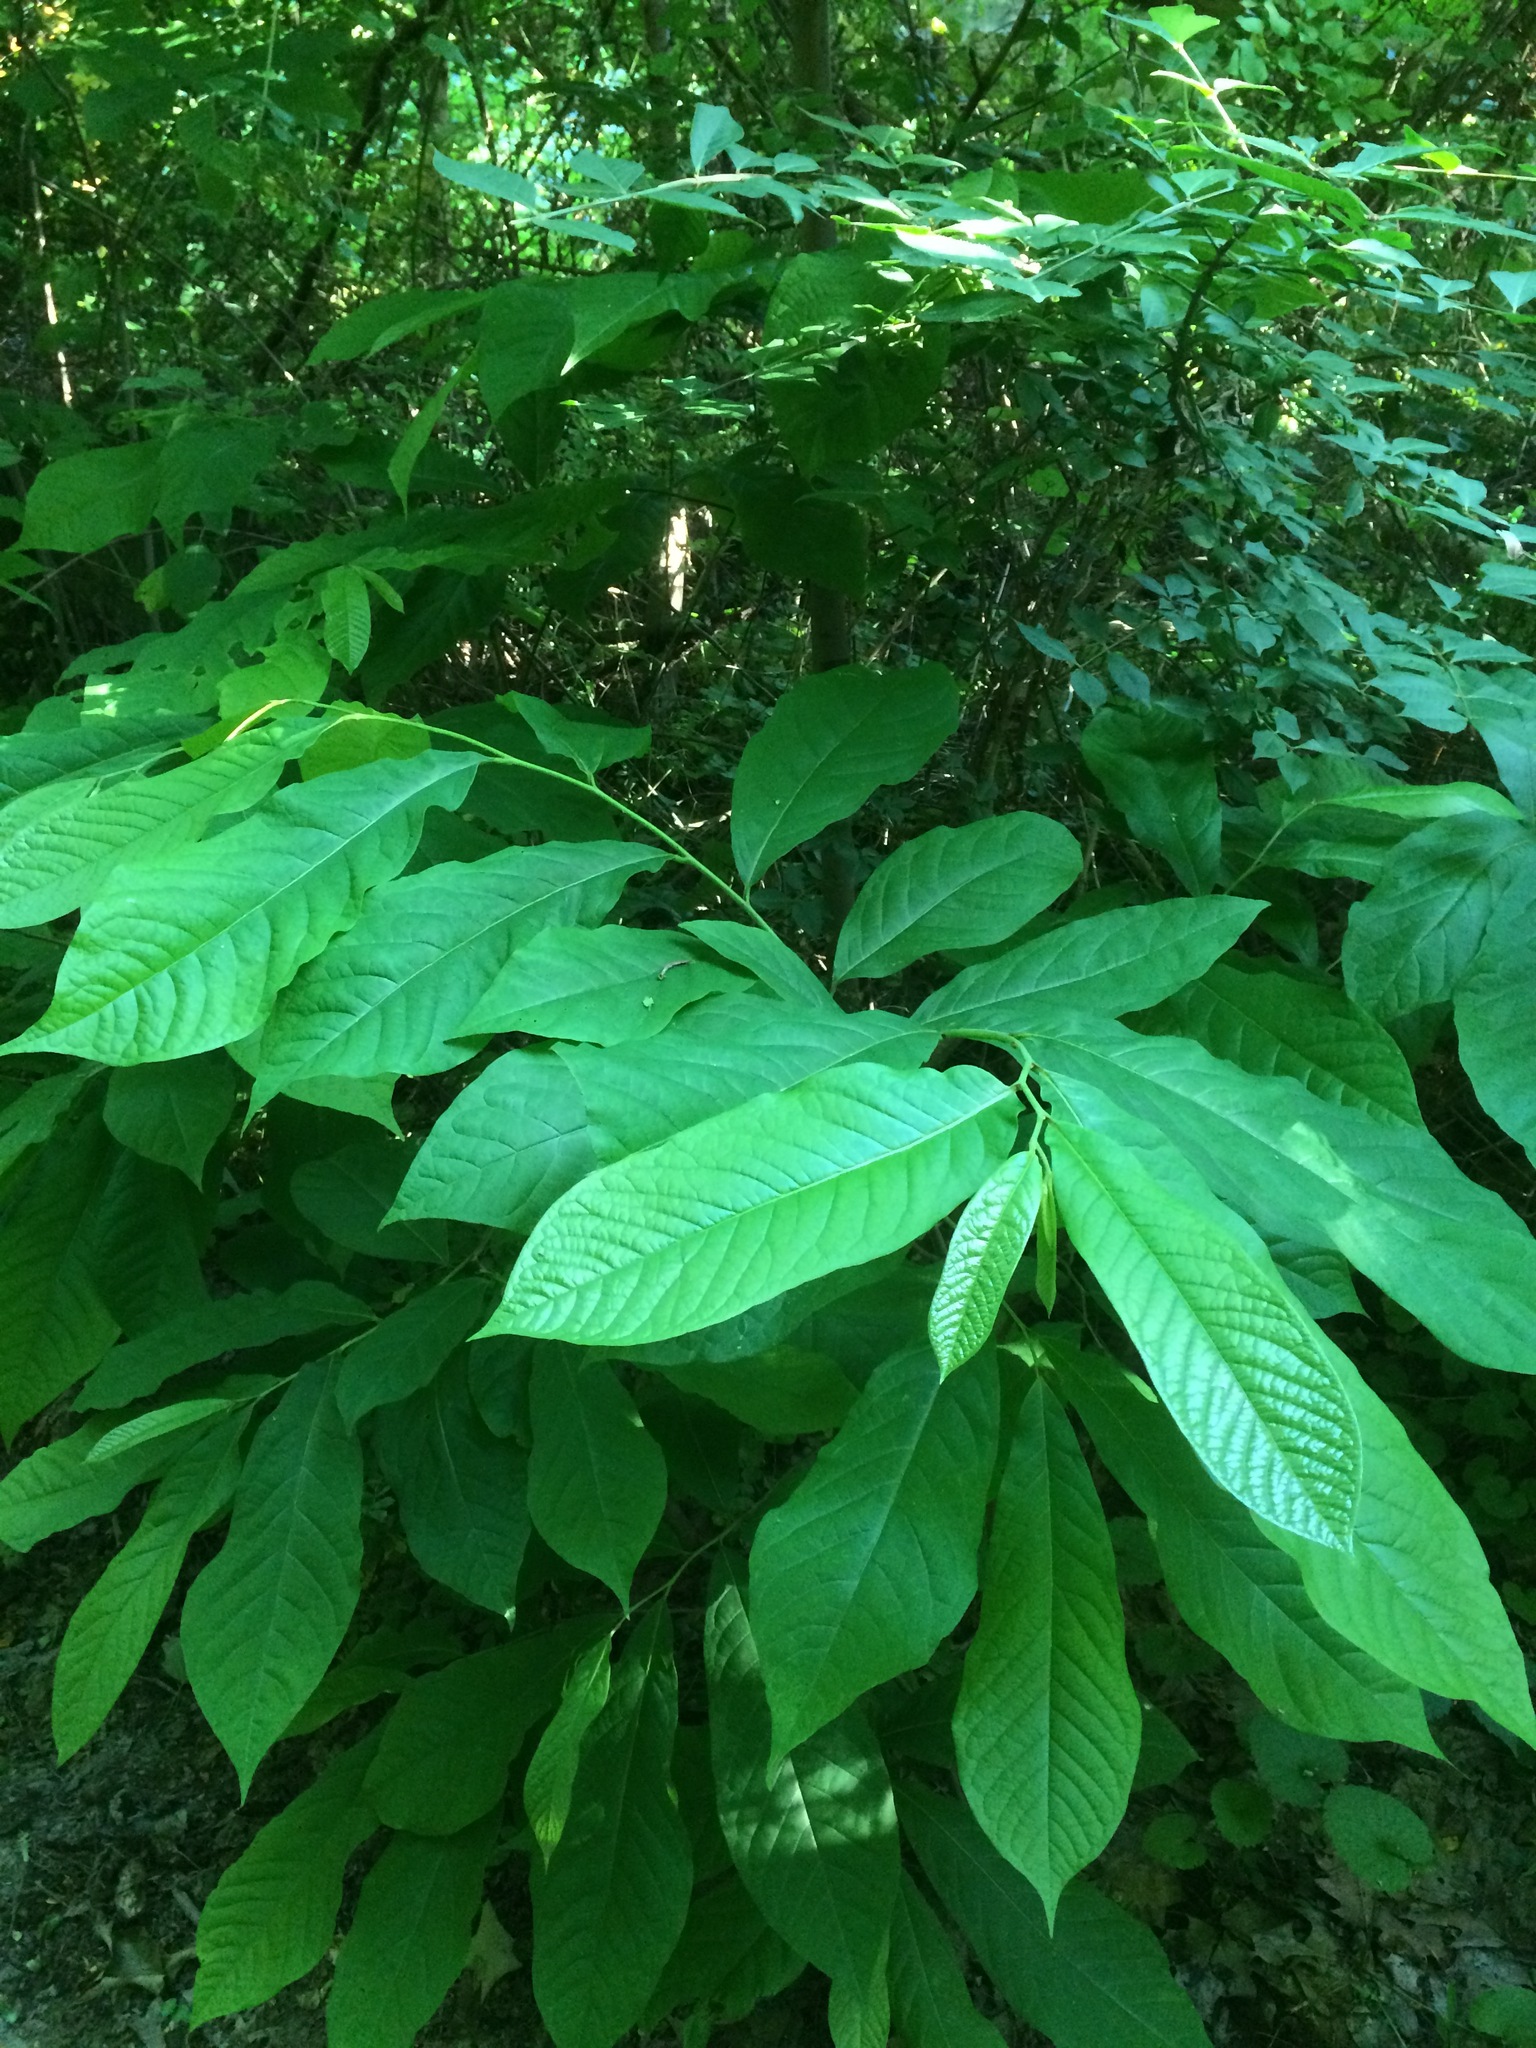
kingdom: Plantae
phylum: Tracheophyta
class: Magnoliopsida
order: Magnoliales
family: Annonaceae
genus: Asimina
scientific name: Asimina triloba
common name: Dog-banana
